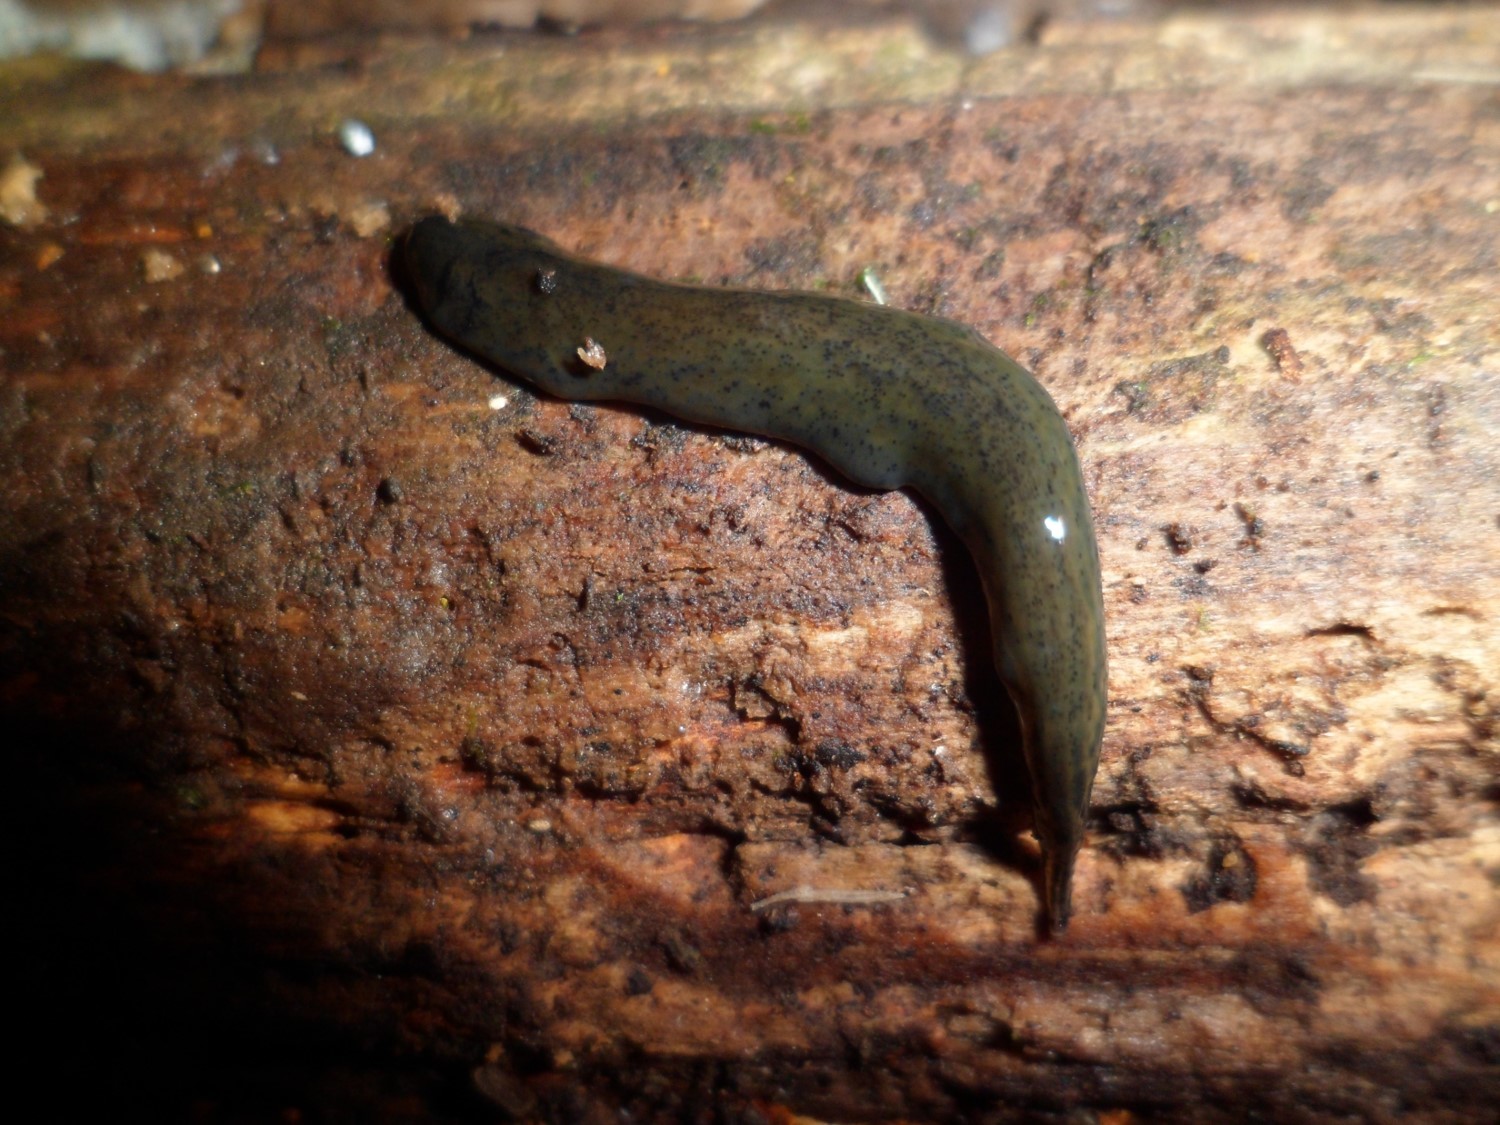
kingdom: Animalia
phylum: Platyhelminthes
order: Tricladida
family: Geoplanidae
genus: Obama
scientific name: Obama maculipunctata
